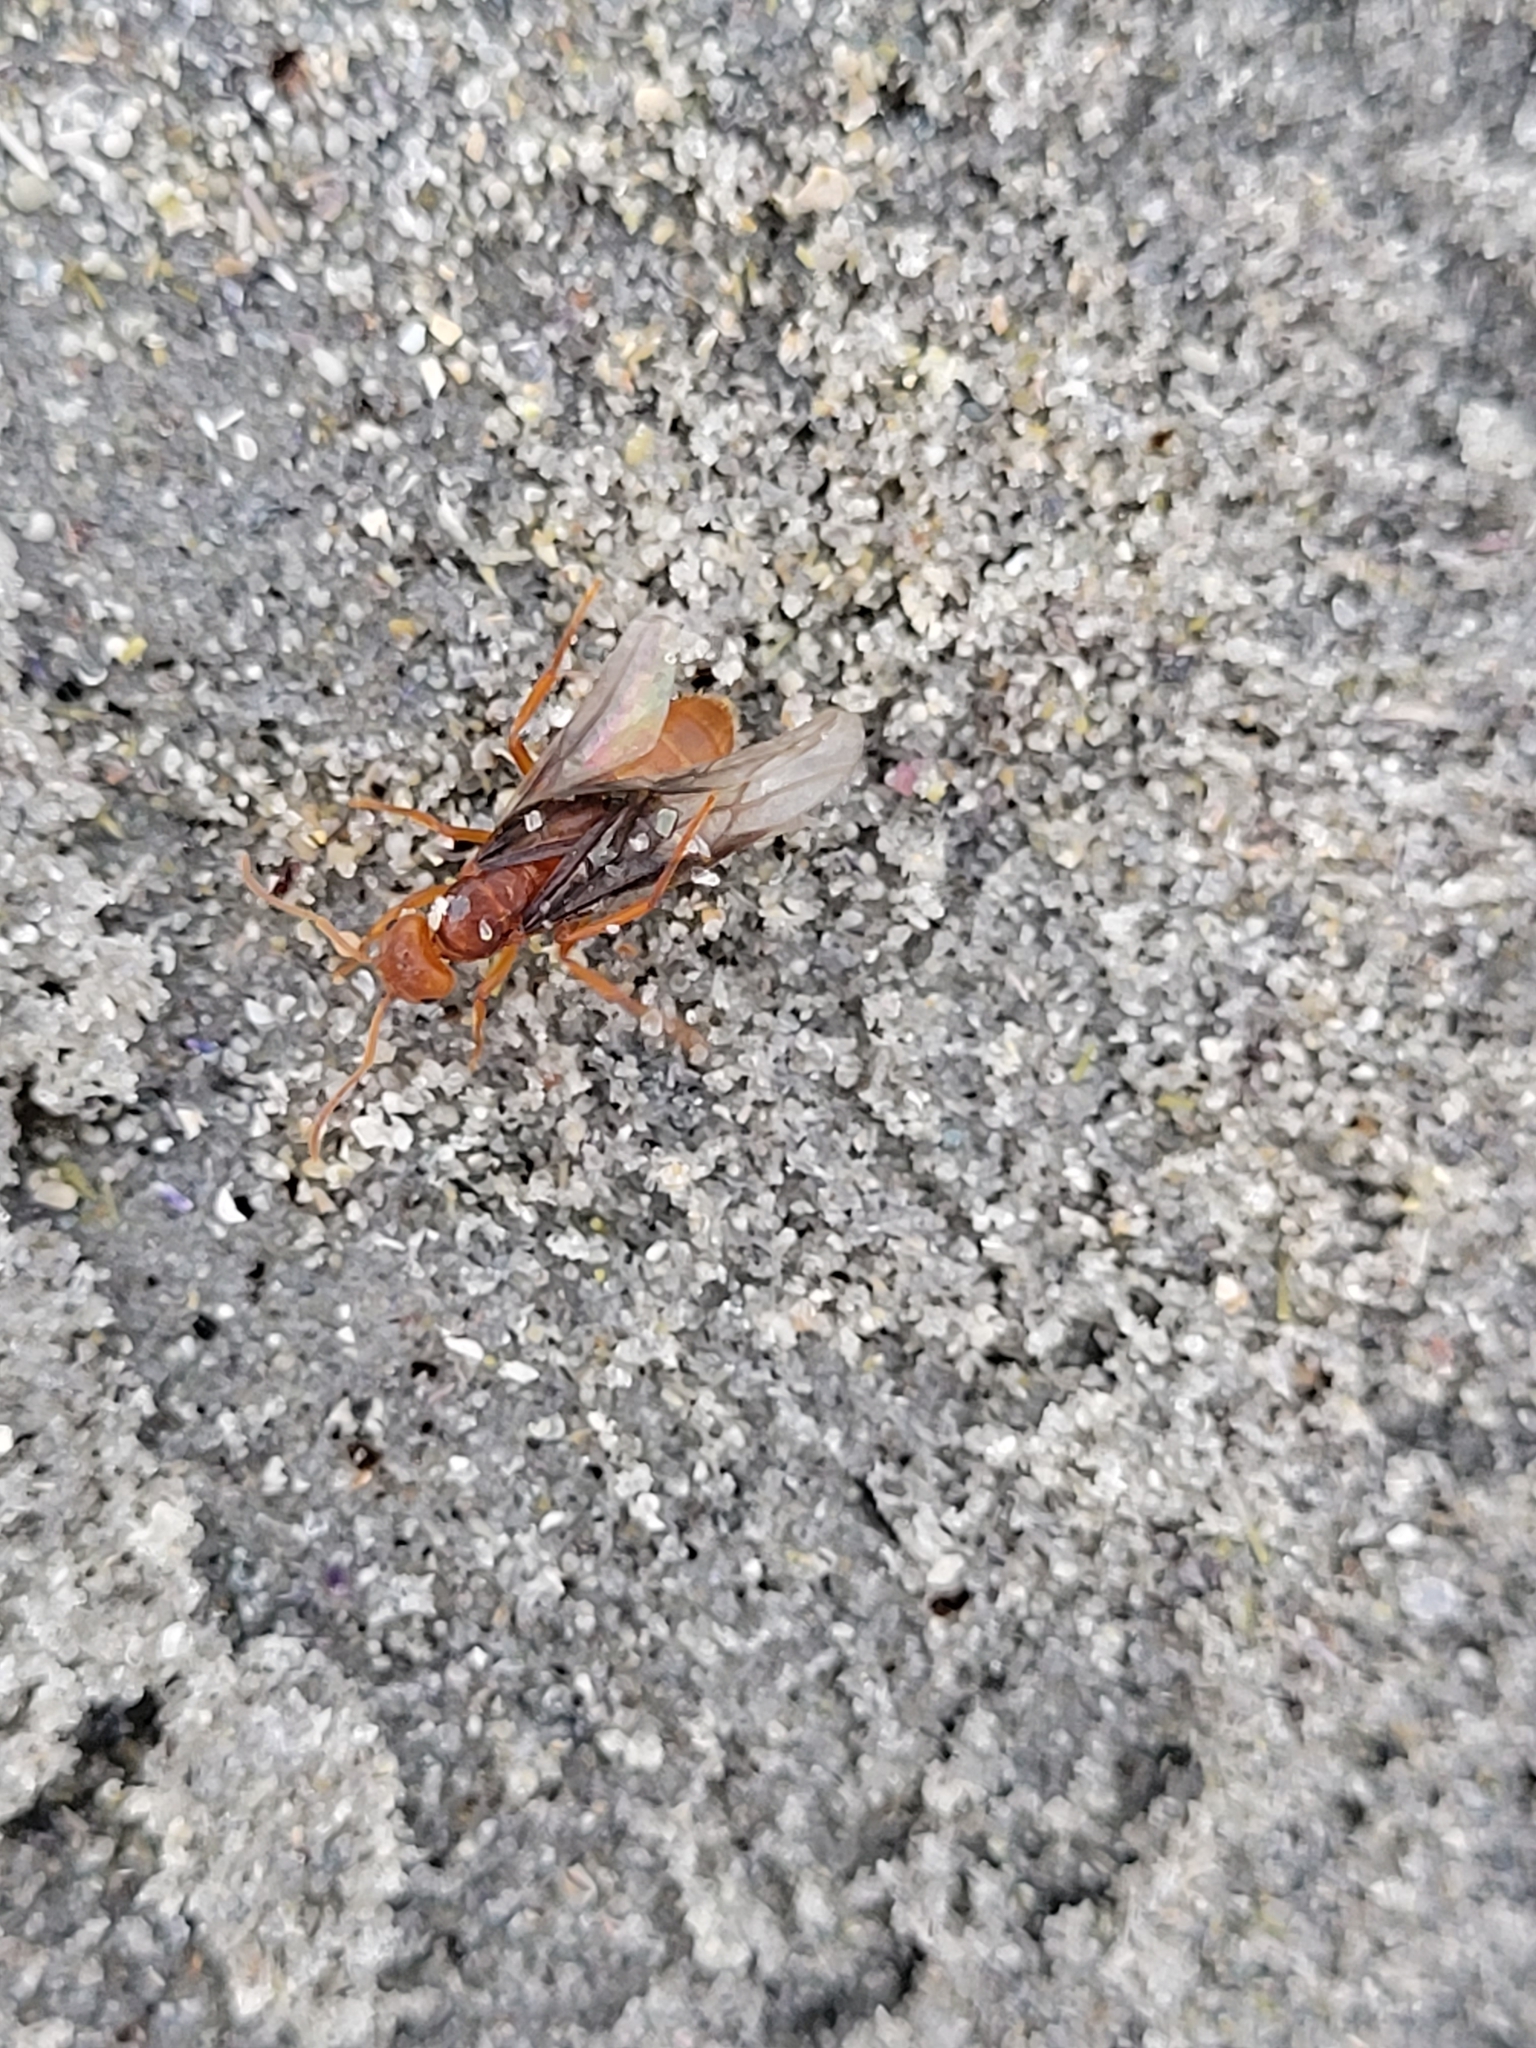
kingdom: Animalia
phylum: Arthropoda
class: Insecta
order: Hymenoptera
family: Formicidae
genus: Lasius
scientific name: Lasius subumbratus
